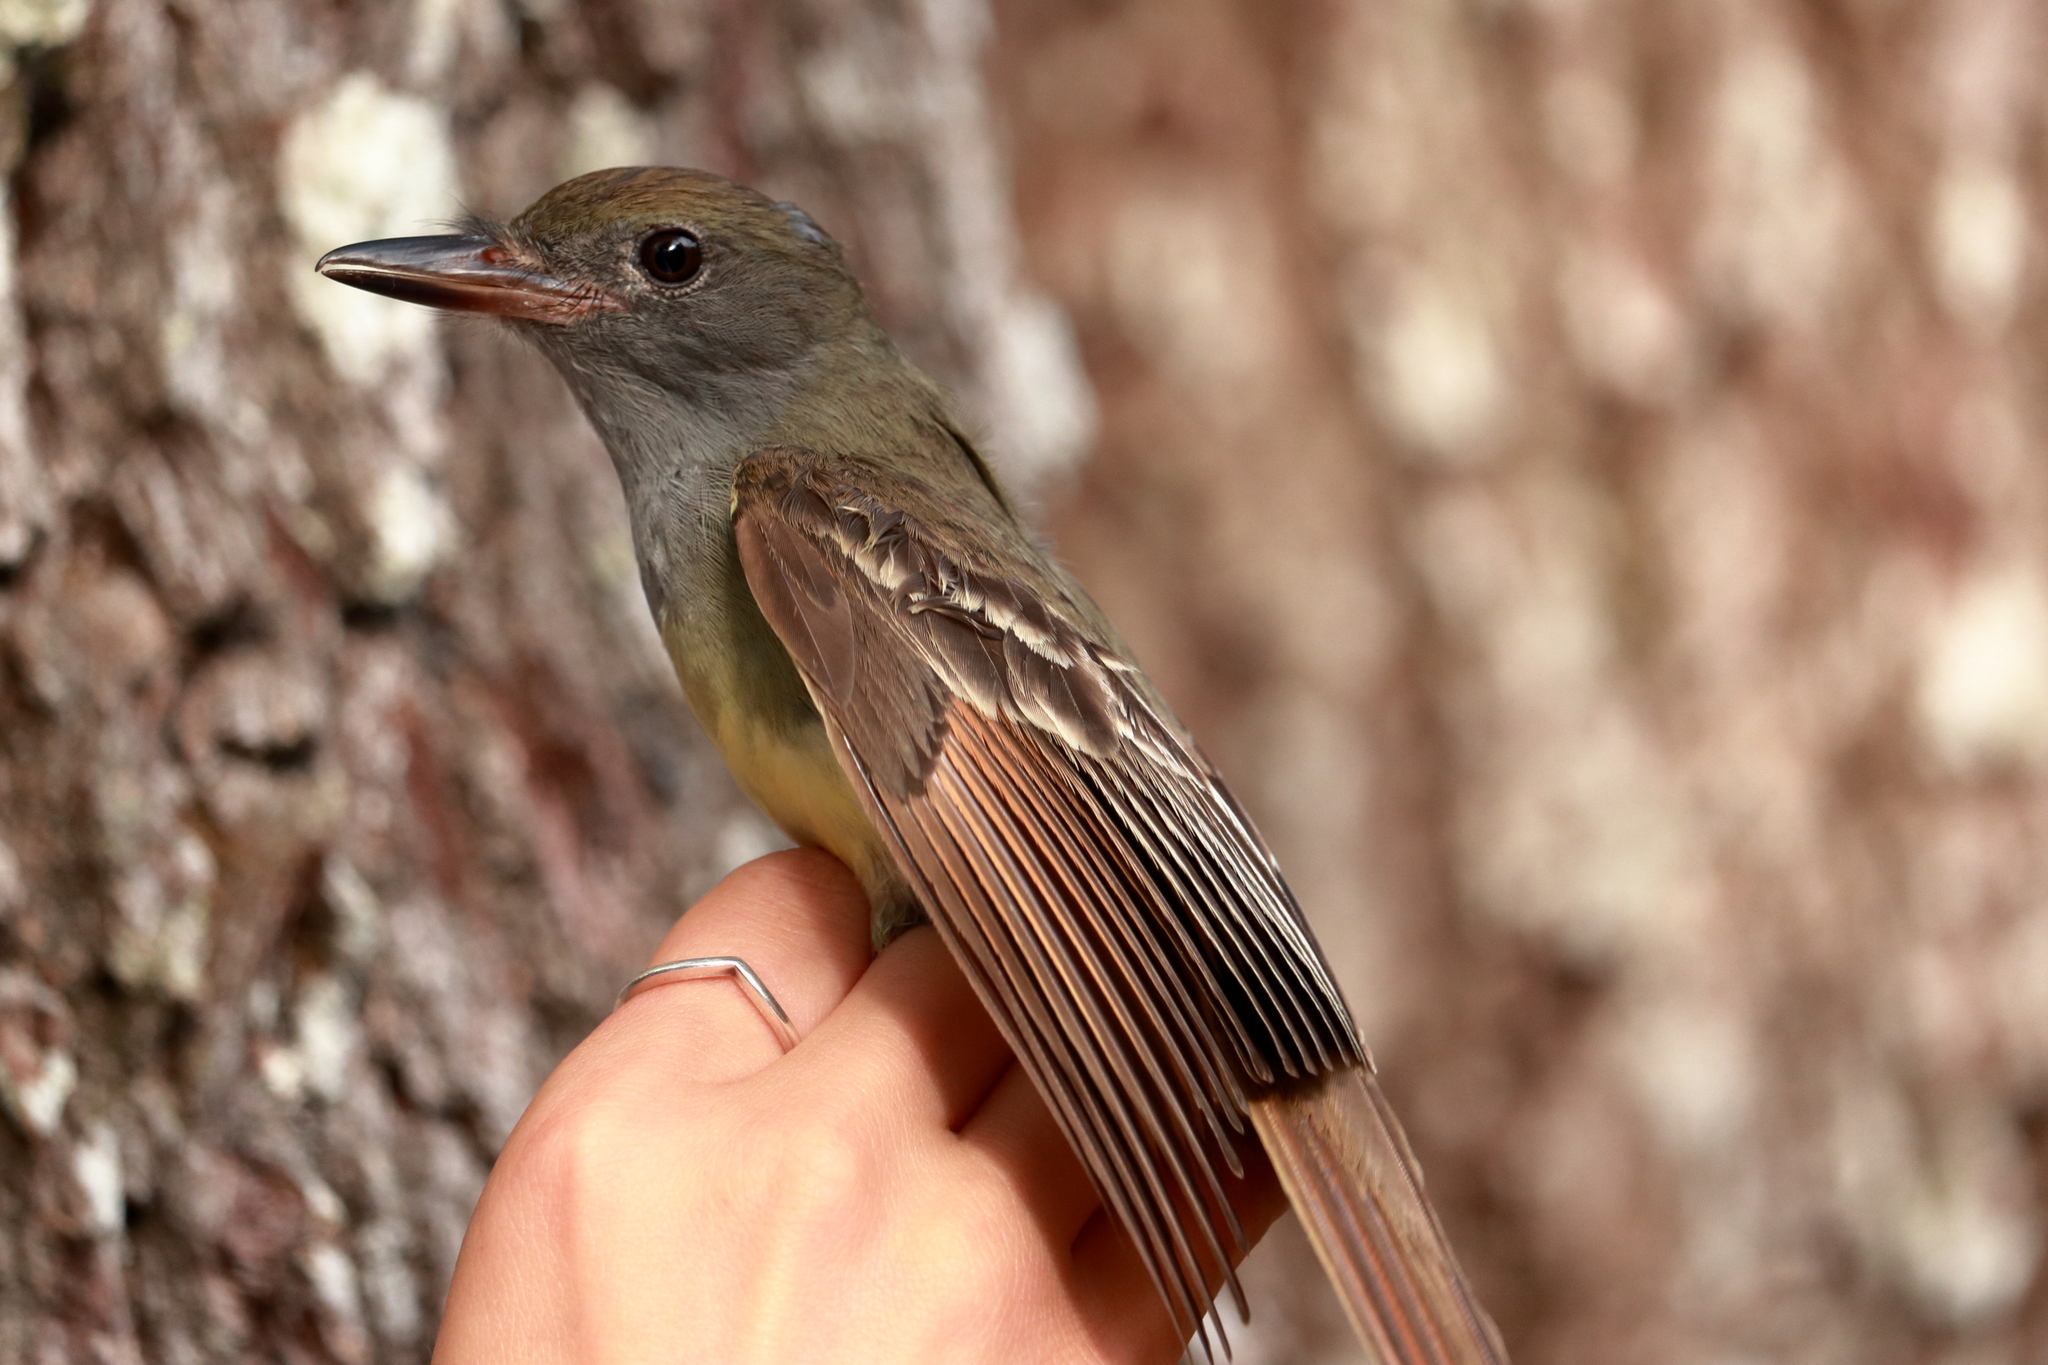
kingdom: Animalia
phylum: Chordata
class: Aves
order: Passeriformes
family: Tyrannidae
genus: Myiarchus
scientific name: Myiarchus crinitus
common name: Great crested flycatcher
